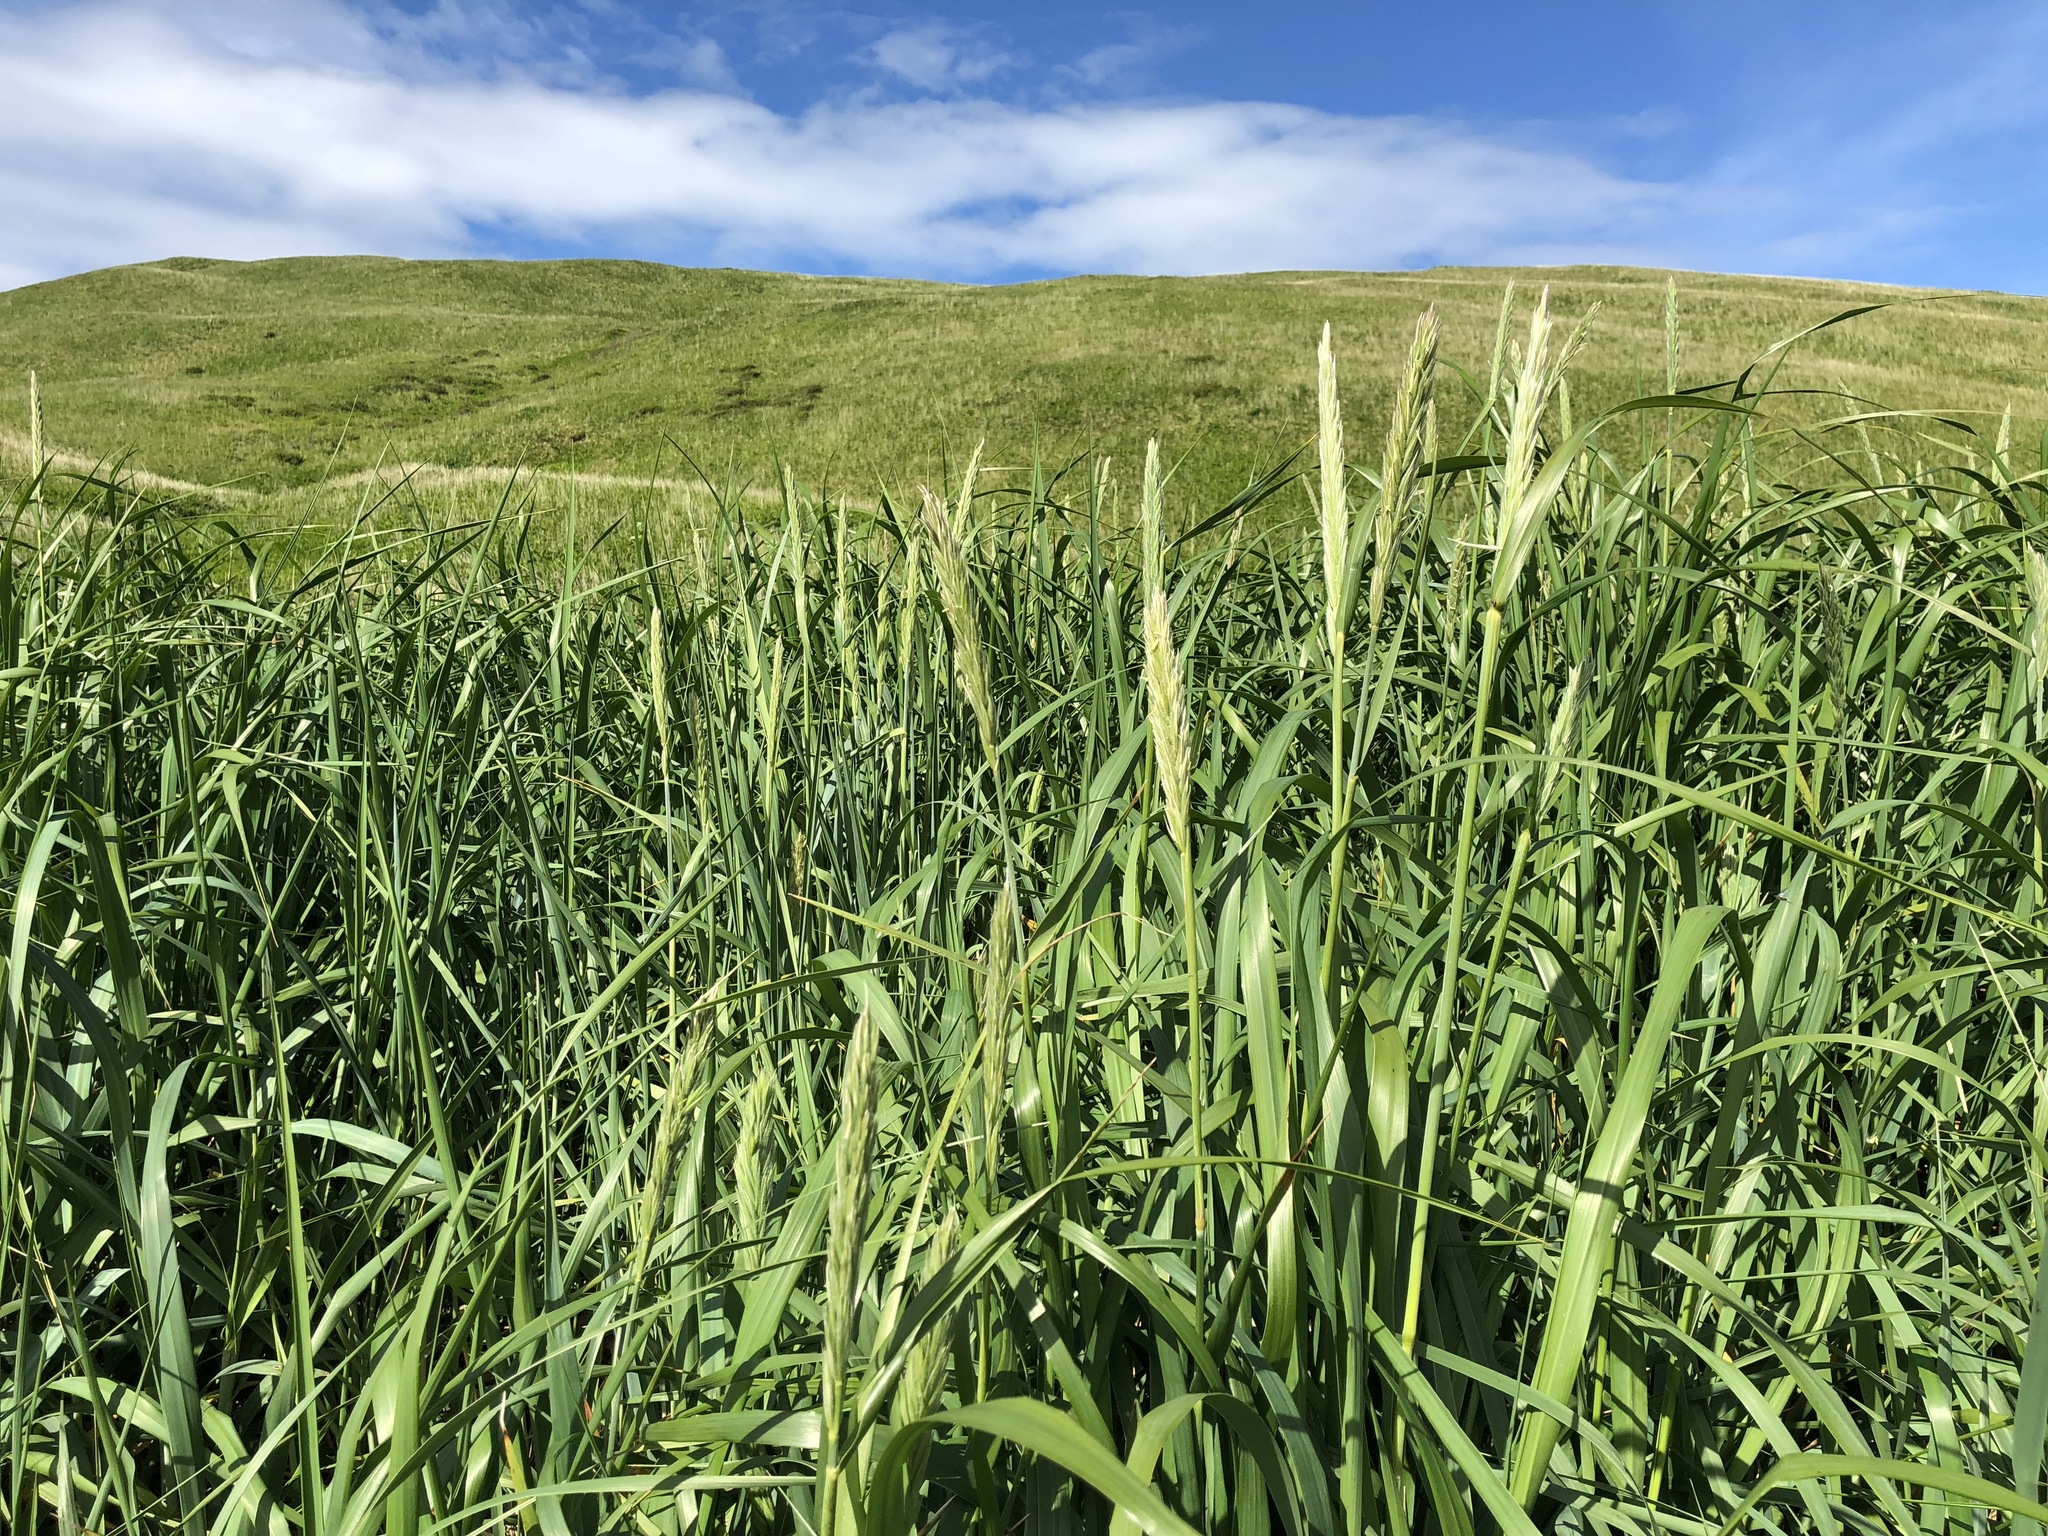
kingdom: Plantae
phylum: Tracheophyta
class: Liliopsida
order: Poales
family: Poaceae
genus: Leymus
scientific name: Leymus mollis
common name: American dune grass
